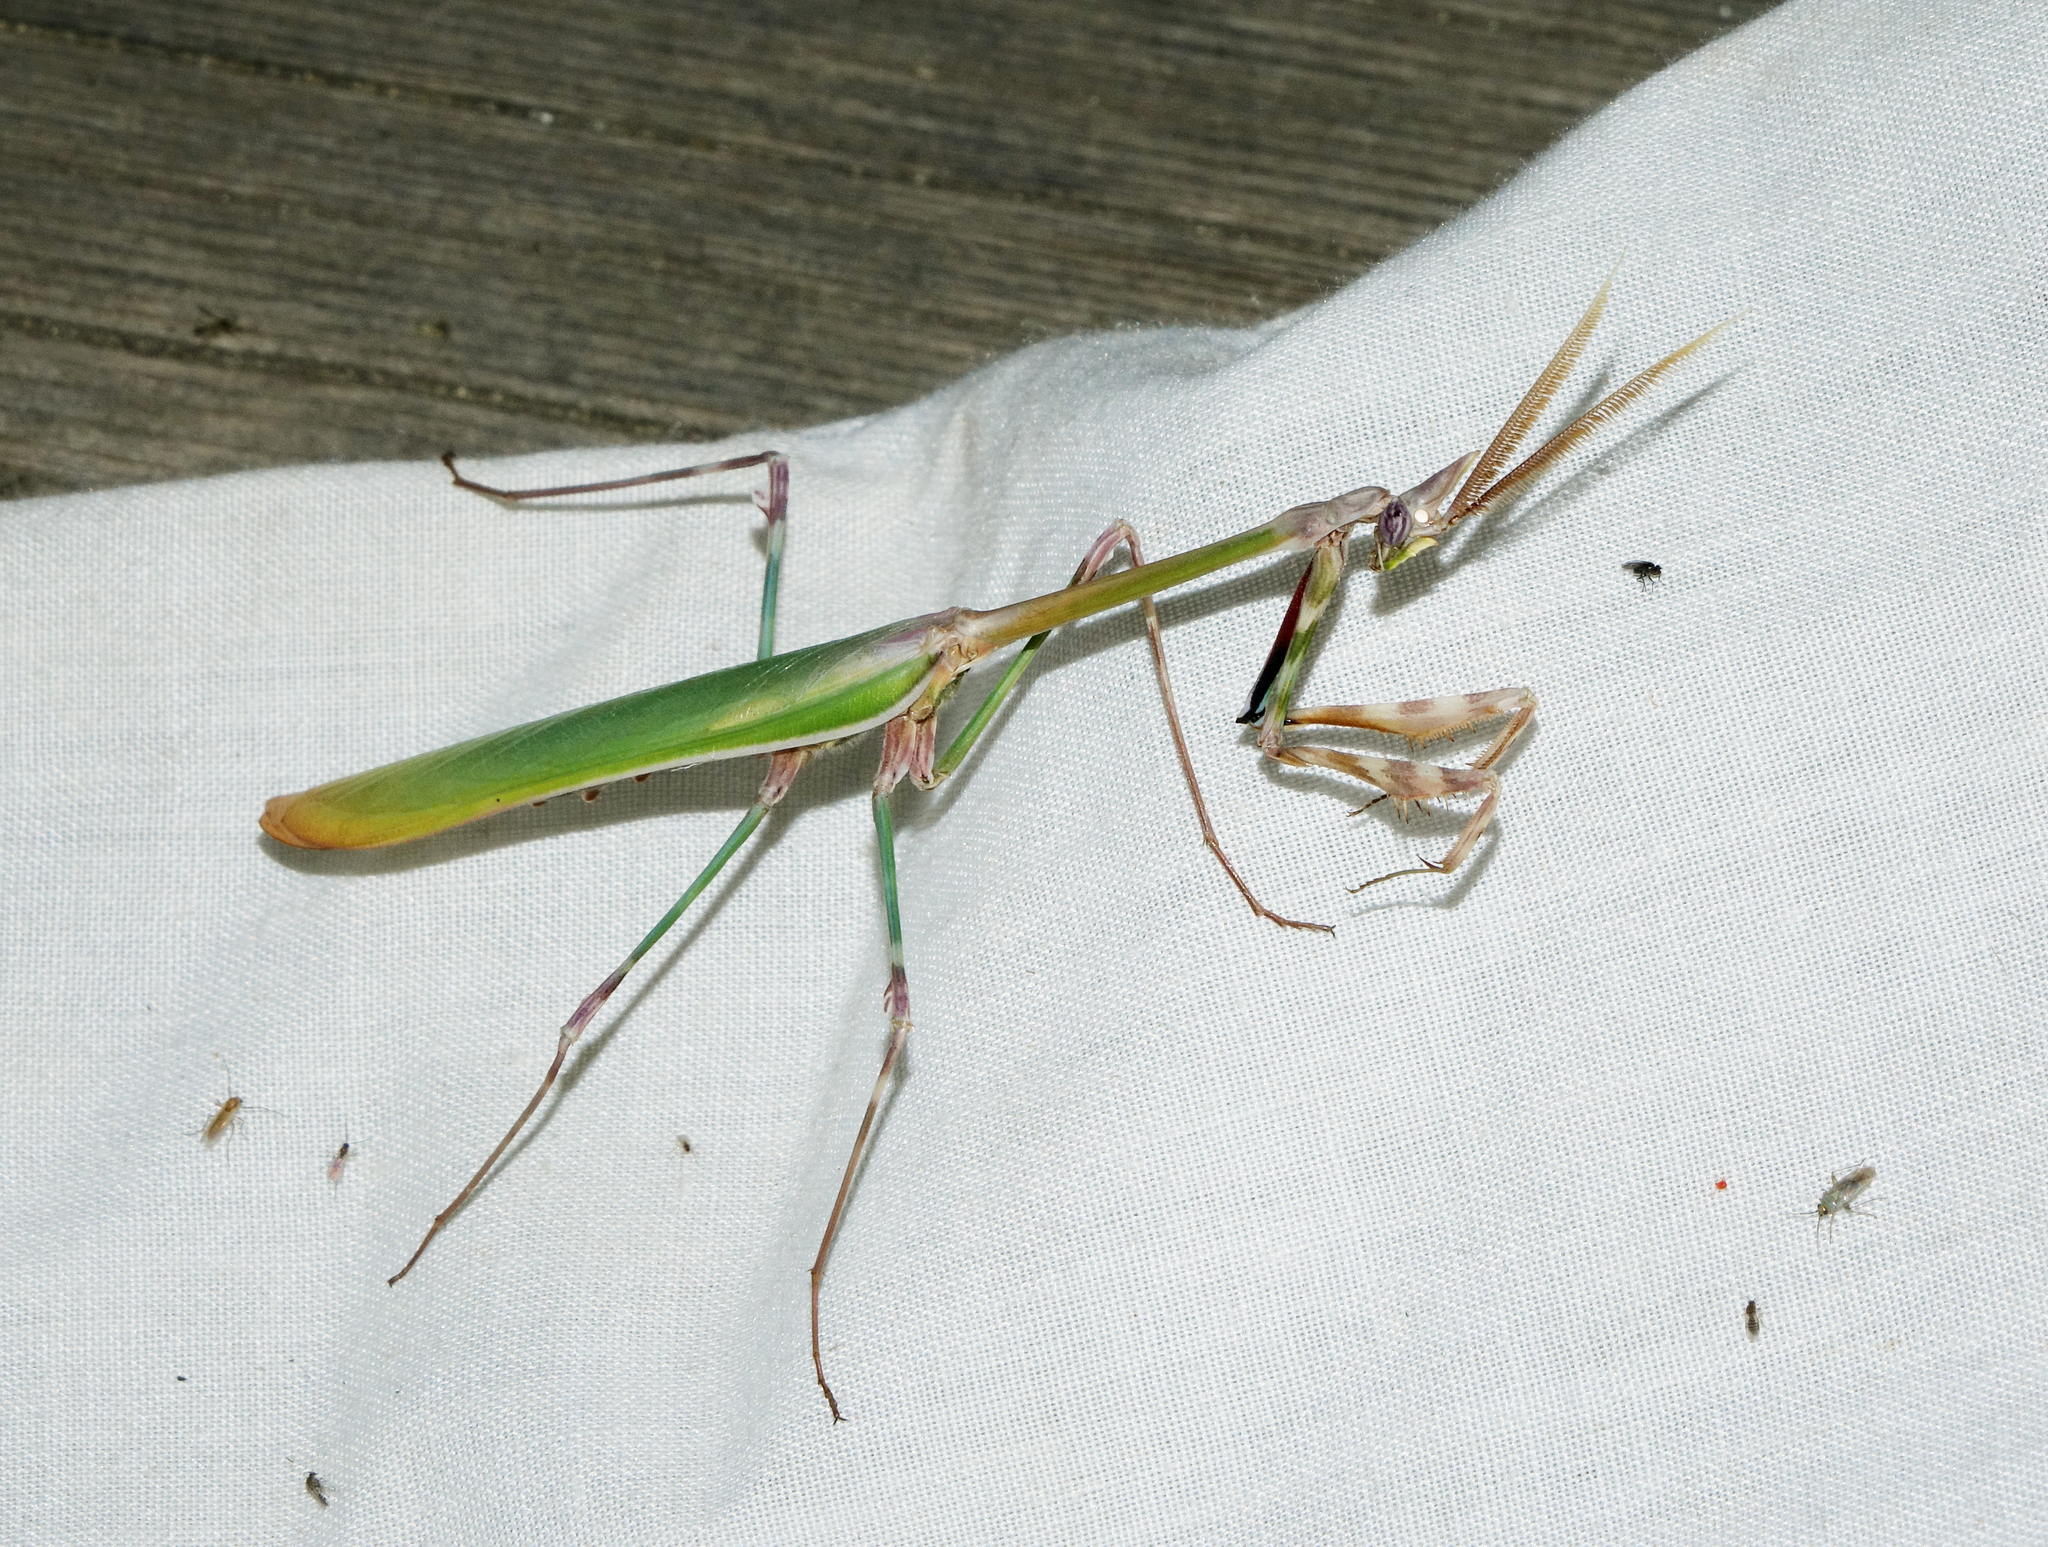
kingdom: Animalia
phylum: Arthropoda
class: Insecta
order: Mantodea
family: Empusidae
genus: Empusa
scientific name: Empusa pennicornis
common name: Conehead mantis
